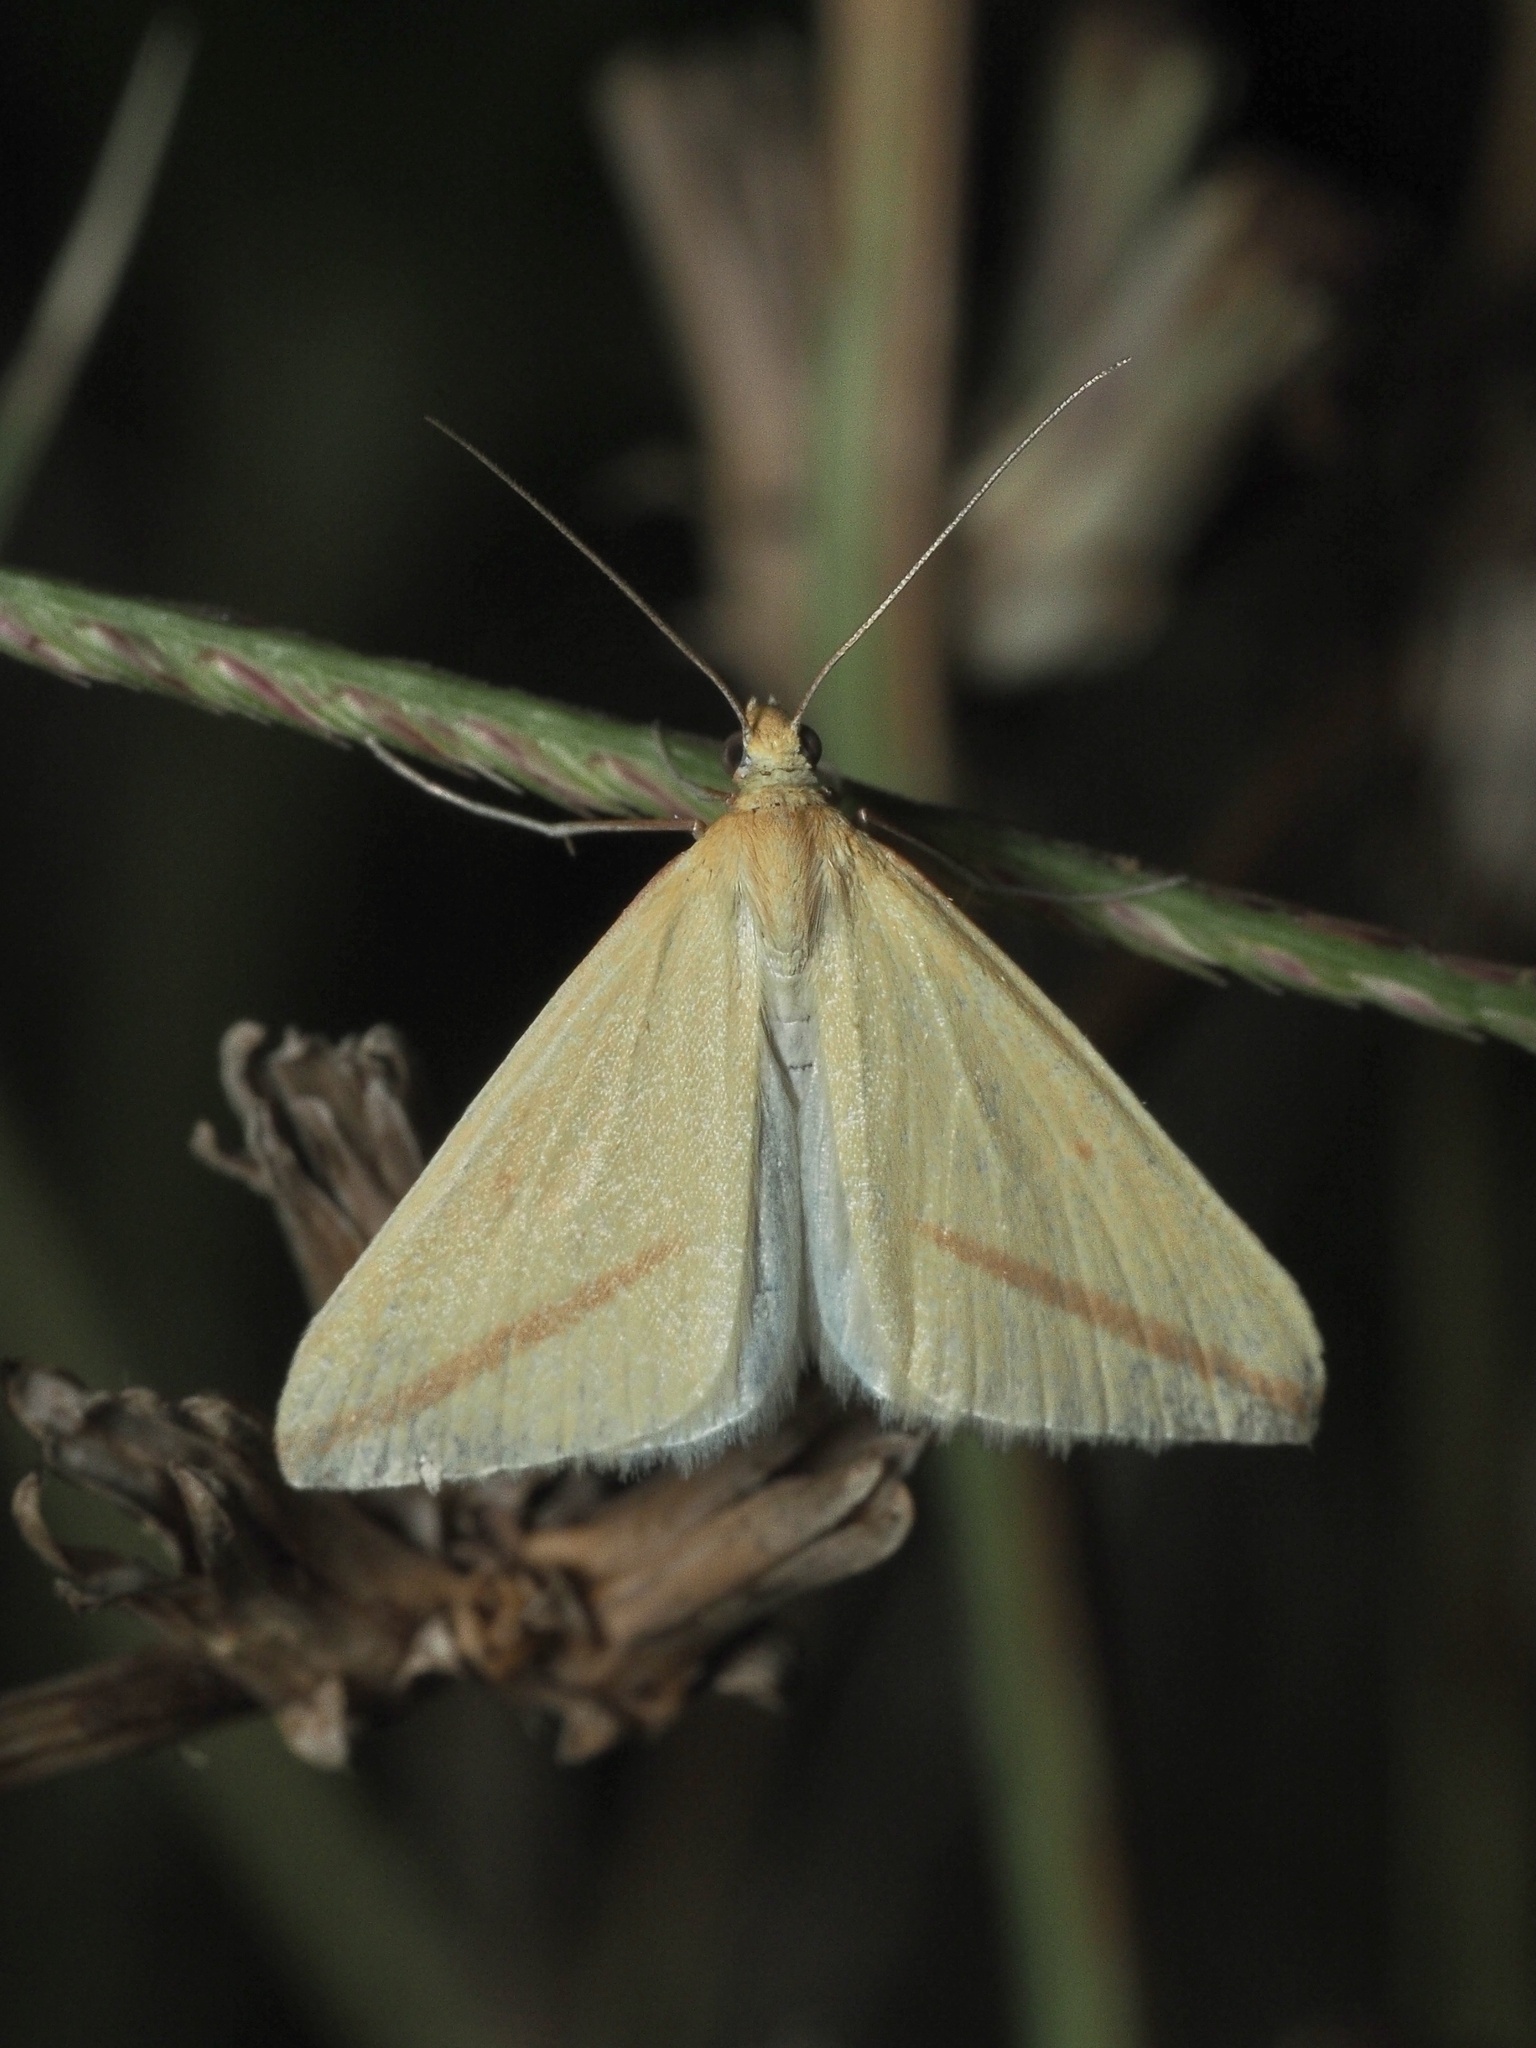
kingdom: Animalia
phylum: Arthropoda
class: Insecta
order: Lepidoptera
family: Geometridae
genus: Rhodometra
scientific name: Rhodometra sacraria
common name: Vestal
